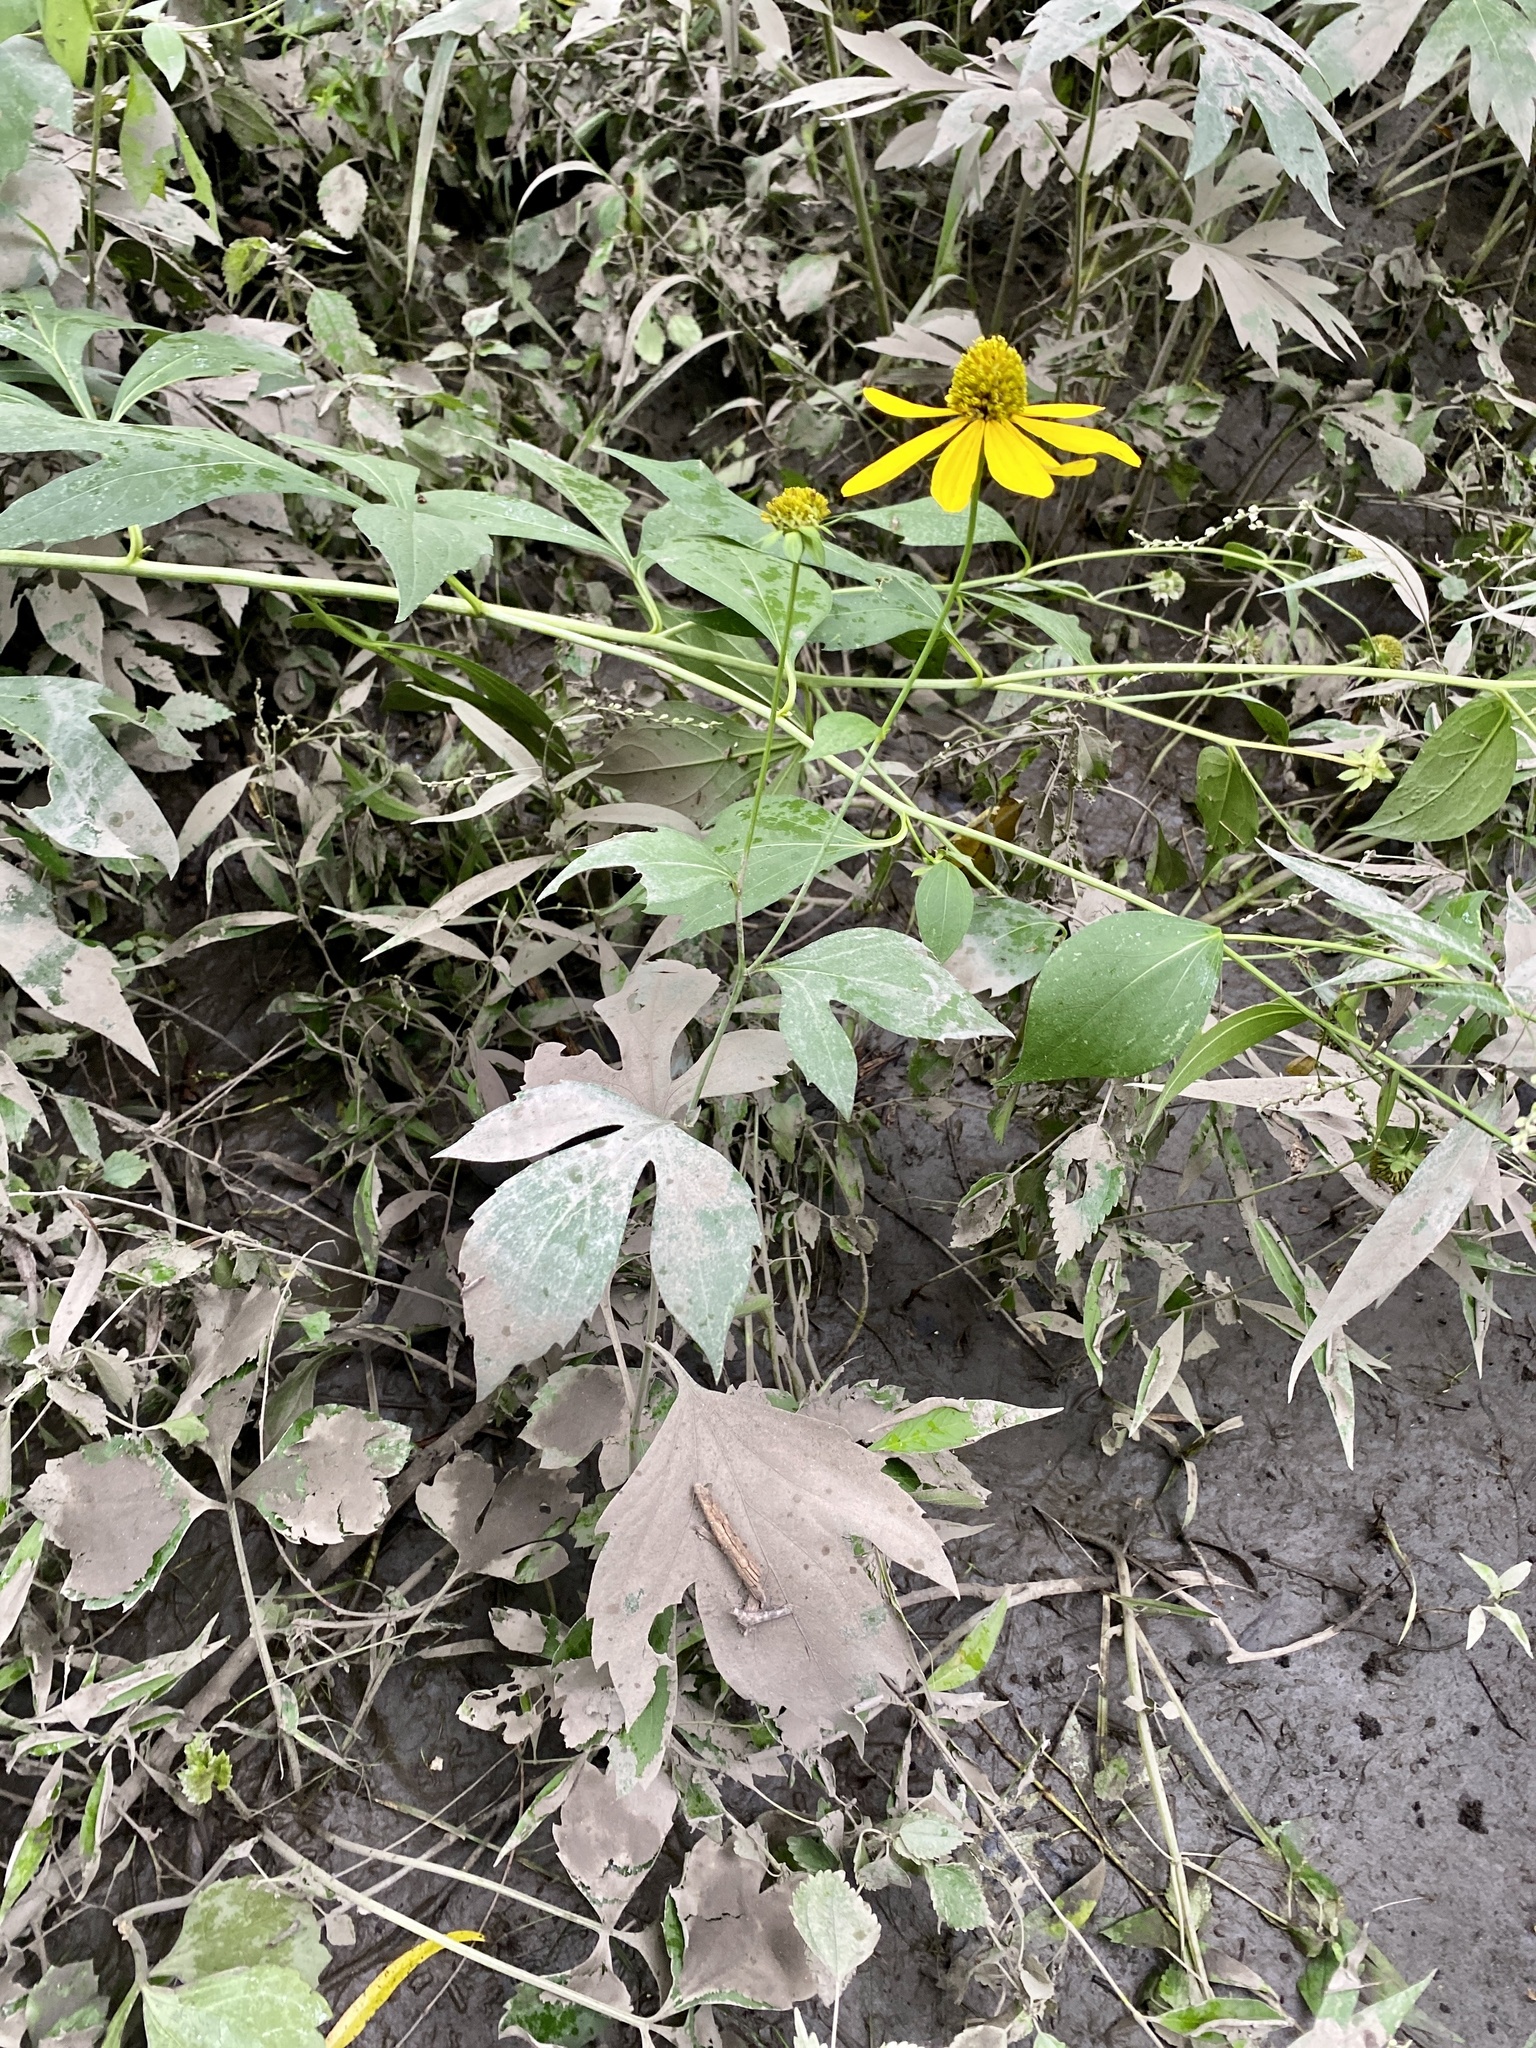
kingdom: Plantae
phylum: Tracheophyta
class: Magnoliopsida
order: Asterales
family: Asteraceae
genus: Rudbeckia
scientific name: Rudbeckia laciniata
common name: Coneflower
